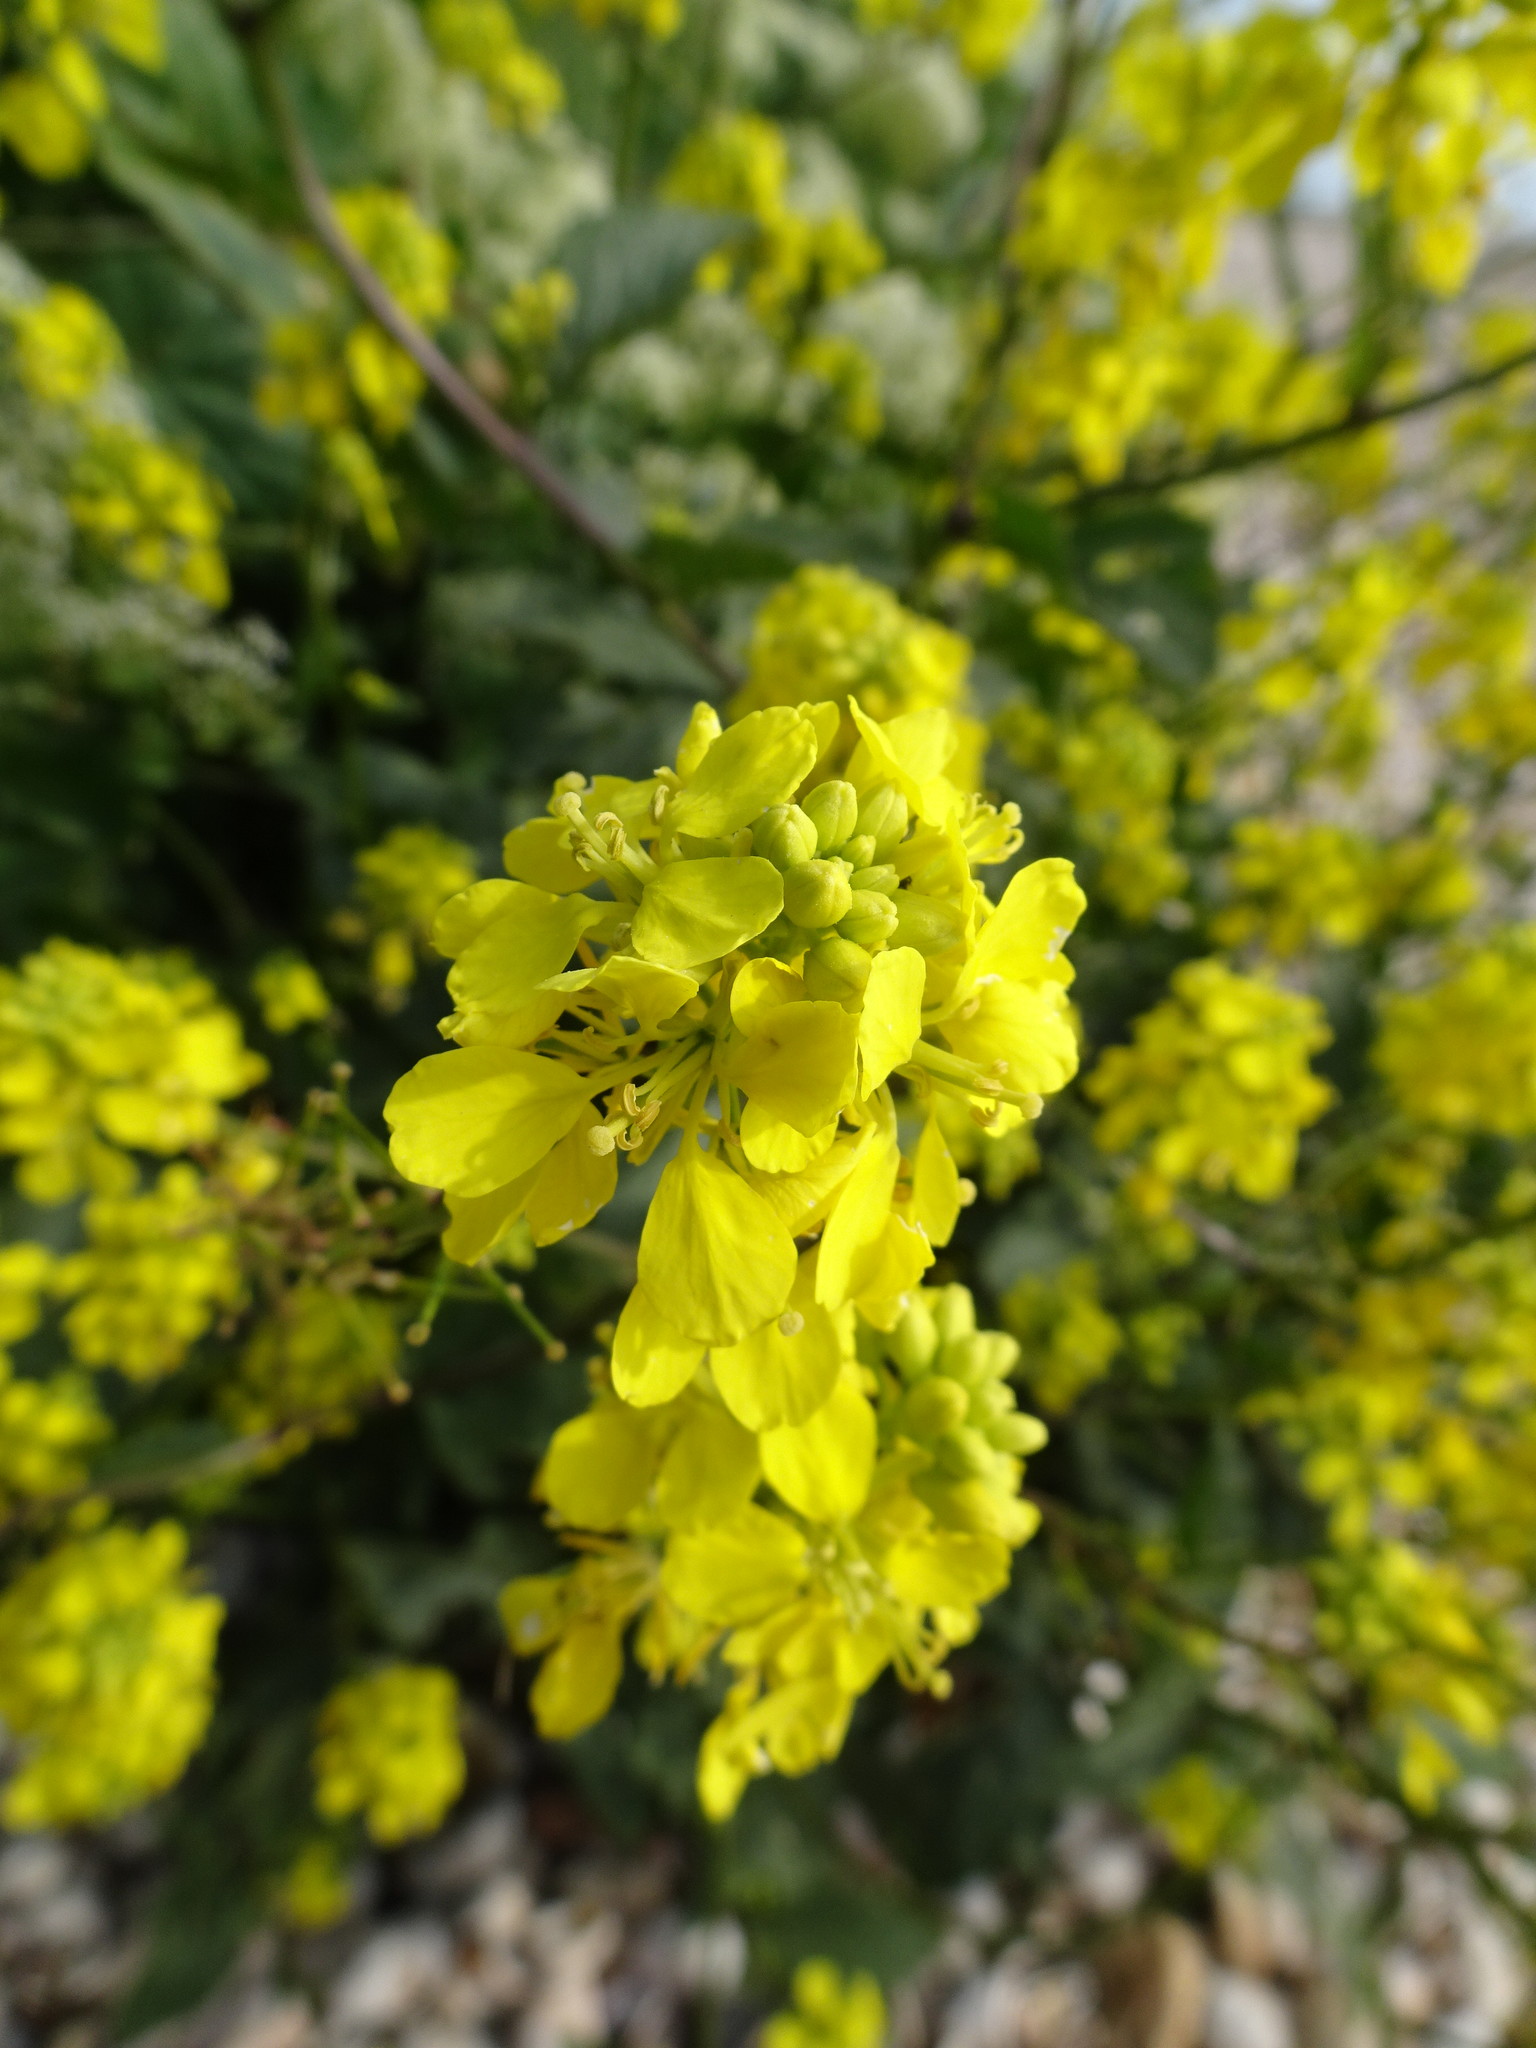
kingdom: Plantae
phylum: Tracheophyta
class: Magnoliopsida
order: Brassicales
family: Brassicaceae
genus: Sinapis
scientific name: Sinapis arvensis
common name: Charlock
